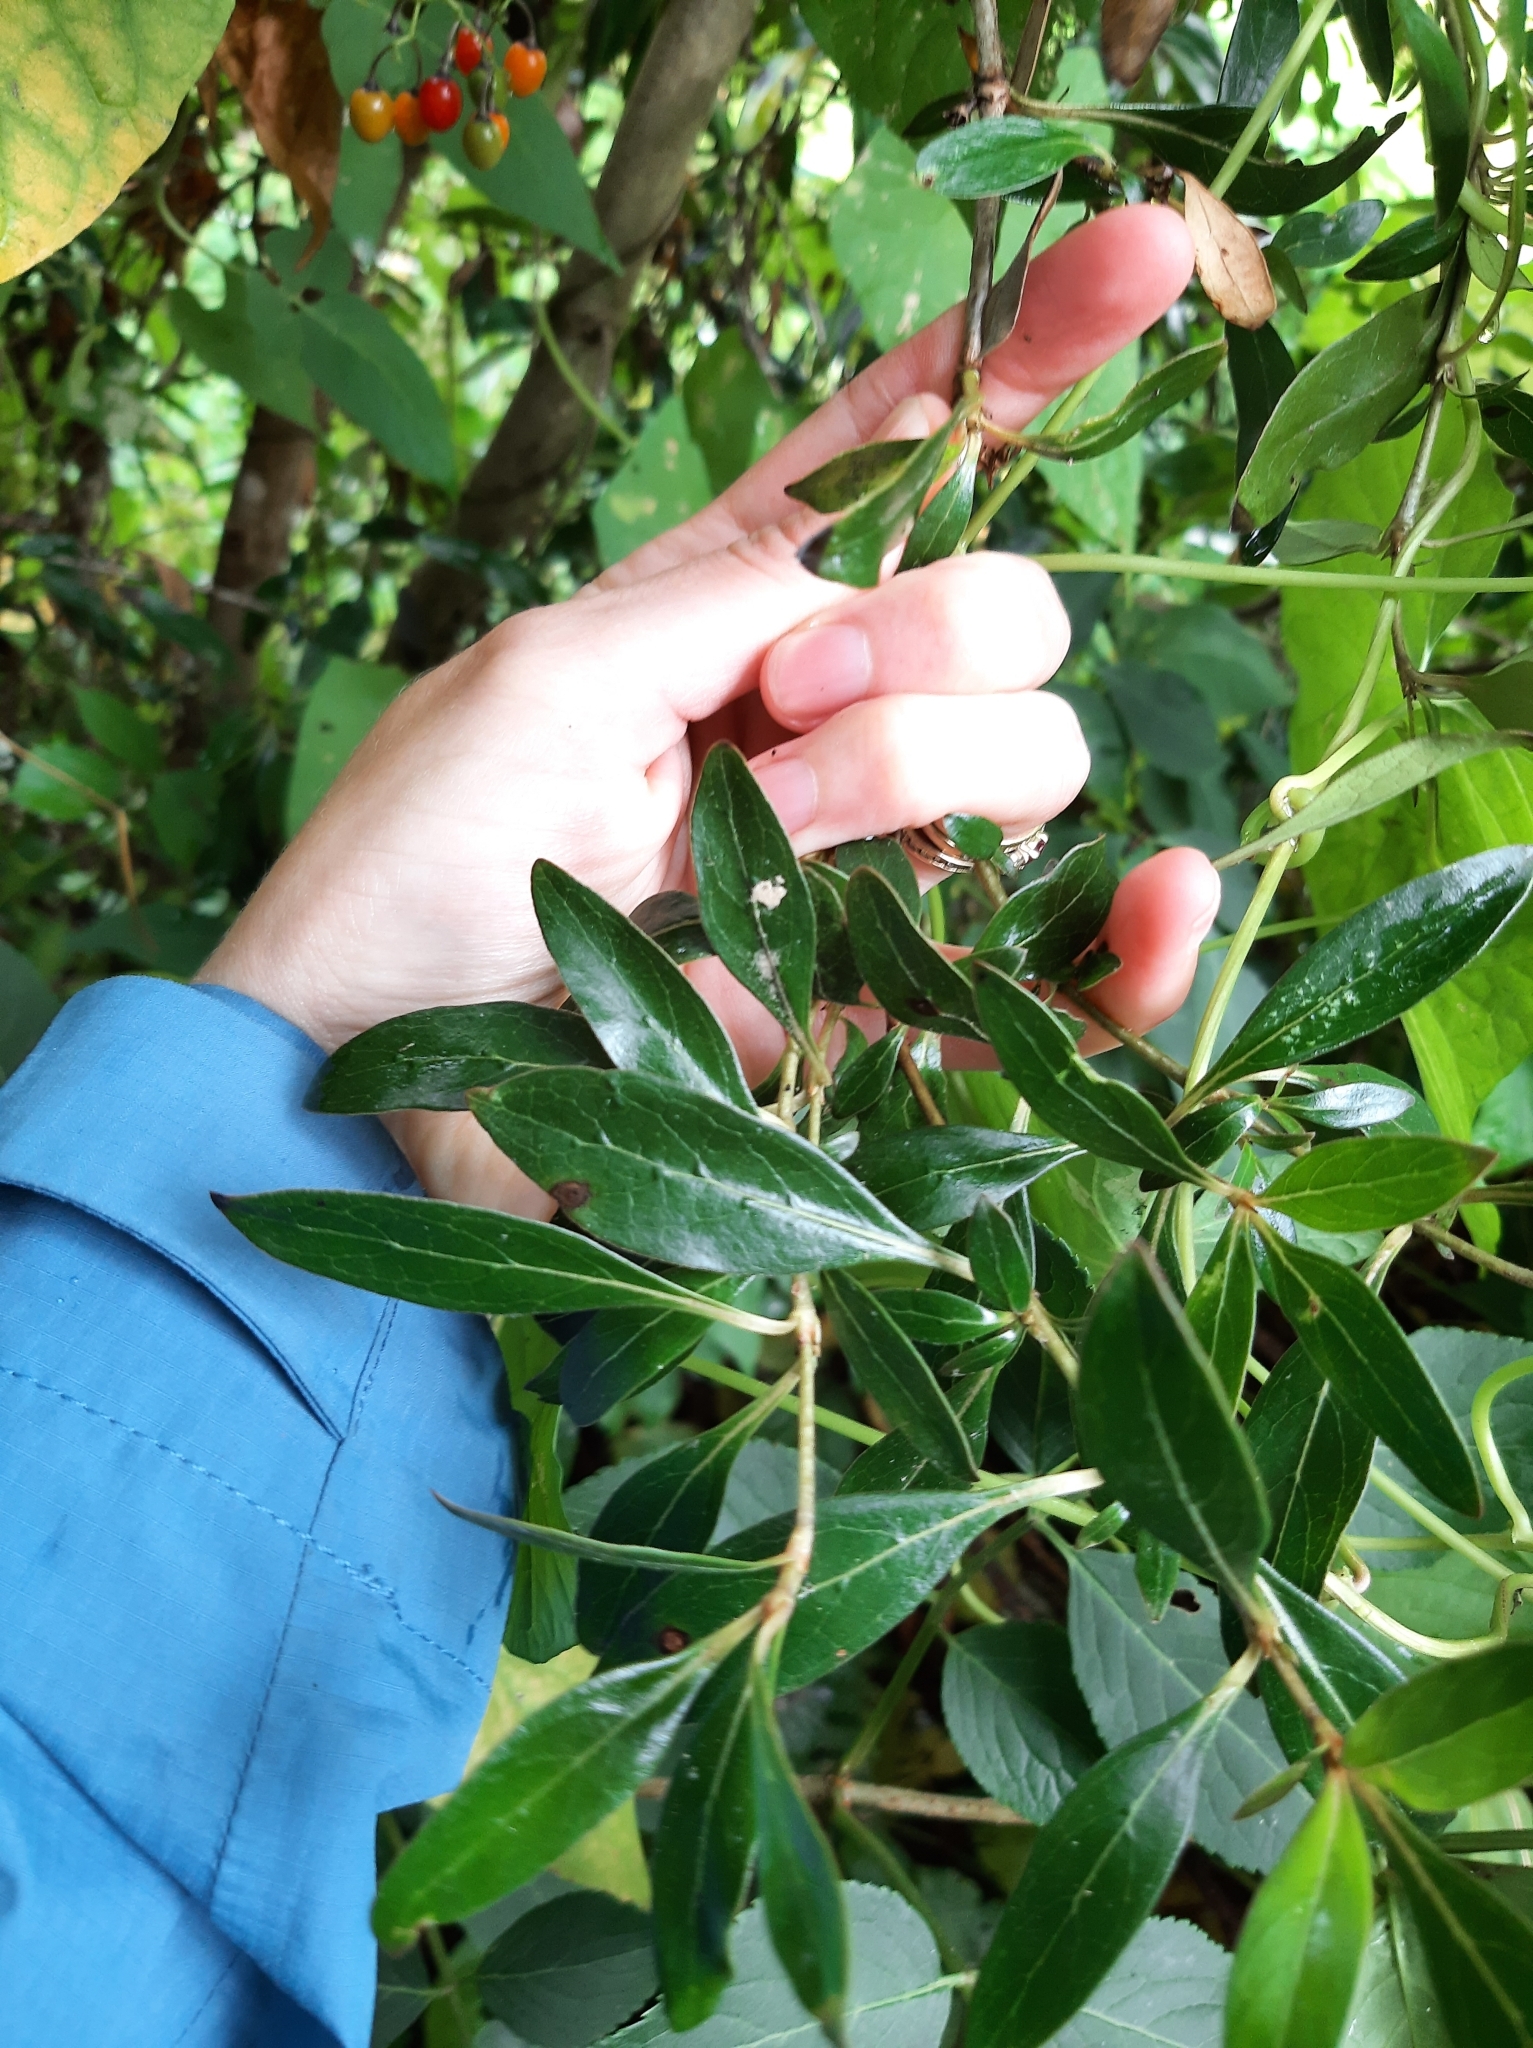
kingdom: Plantae
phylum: Tracheophyta
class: Magnoliopsida
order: Gentianales
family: Rubiaceae
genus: Coprosma
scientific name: Coprosma cunninghamii
